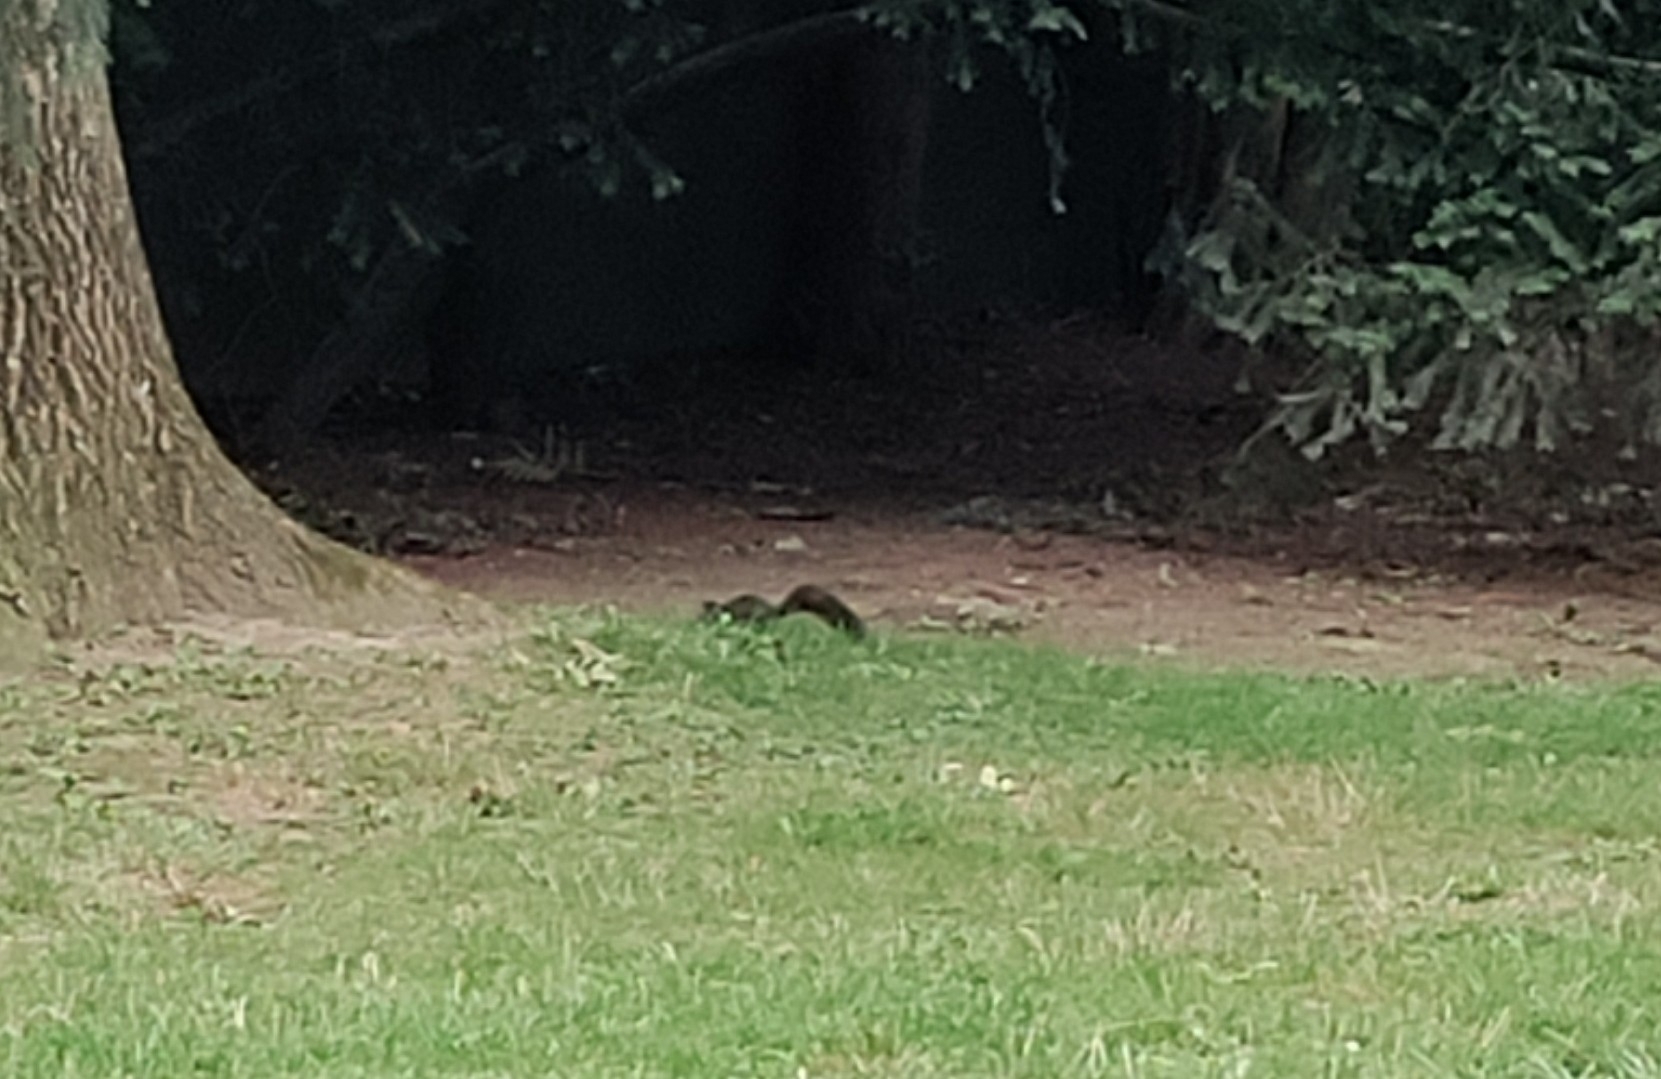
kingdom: Animalia
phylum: Chordata
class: Mammalia
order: Rodentia
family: Sciuridae
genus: Sciurus
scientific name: Sciurus vulgaris
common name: Eurasian red squirrel
